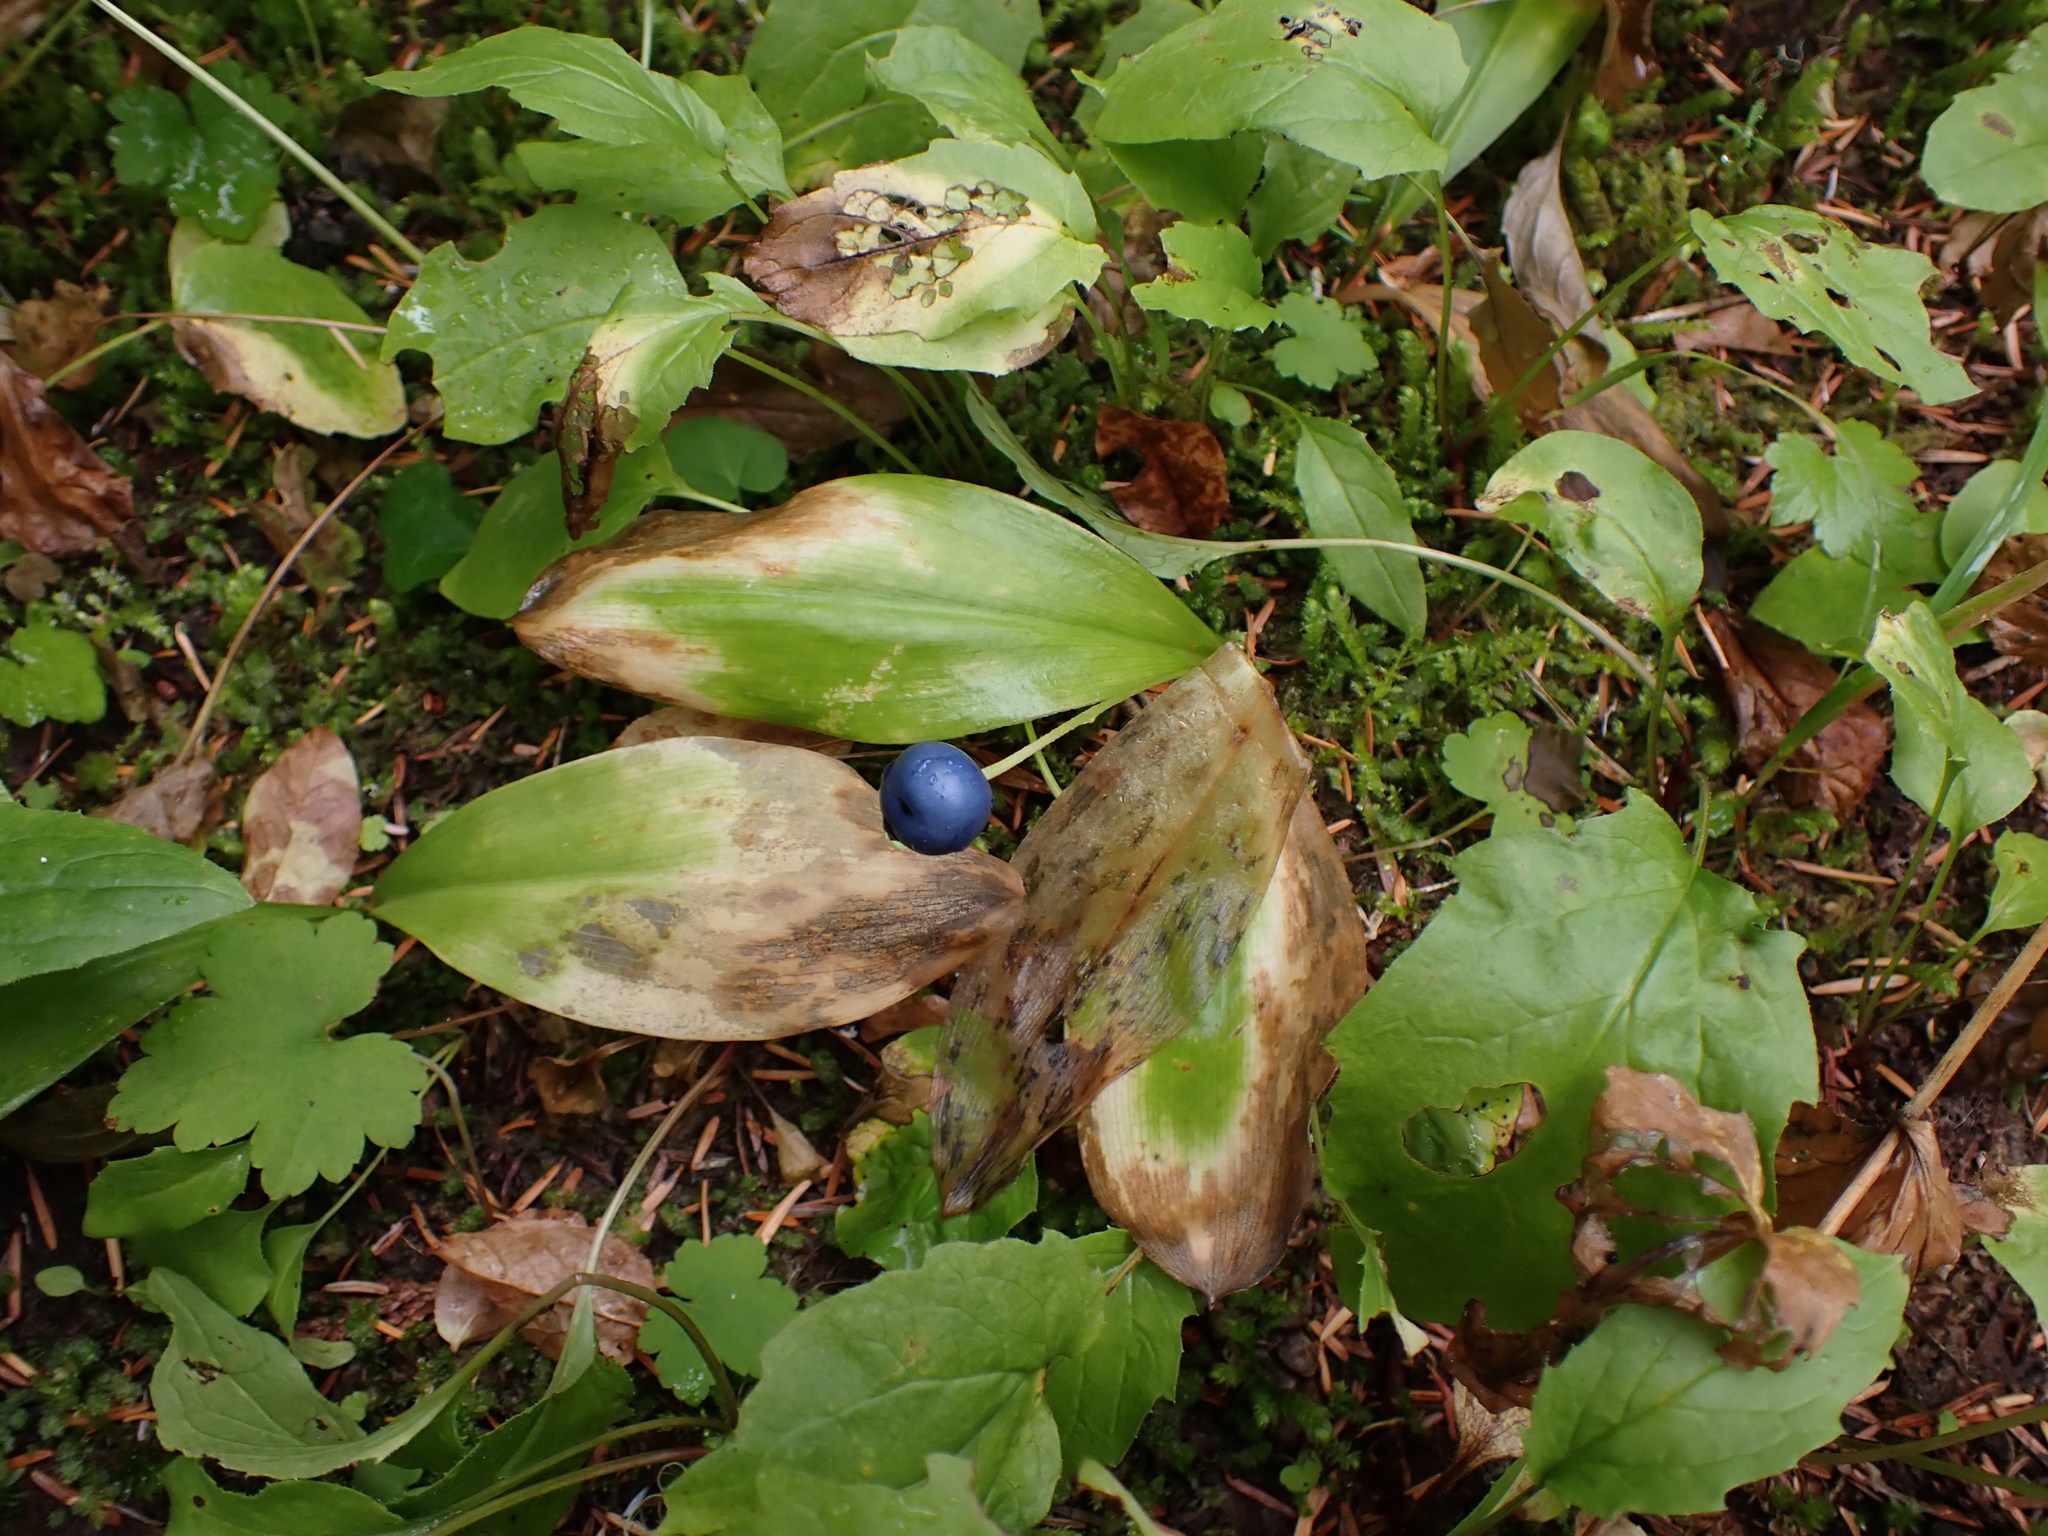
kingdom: Plantae
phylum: Tracheophyta
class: Liliopsida
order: Liliales
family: Liliaceae
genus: Clintonia
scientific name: Clintonia uniflora
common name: Queen's cup
